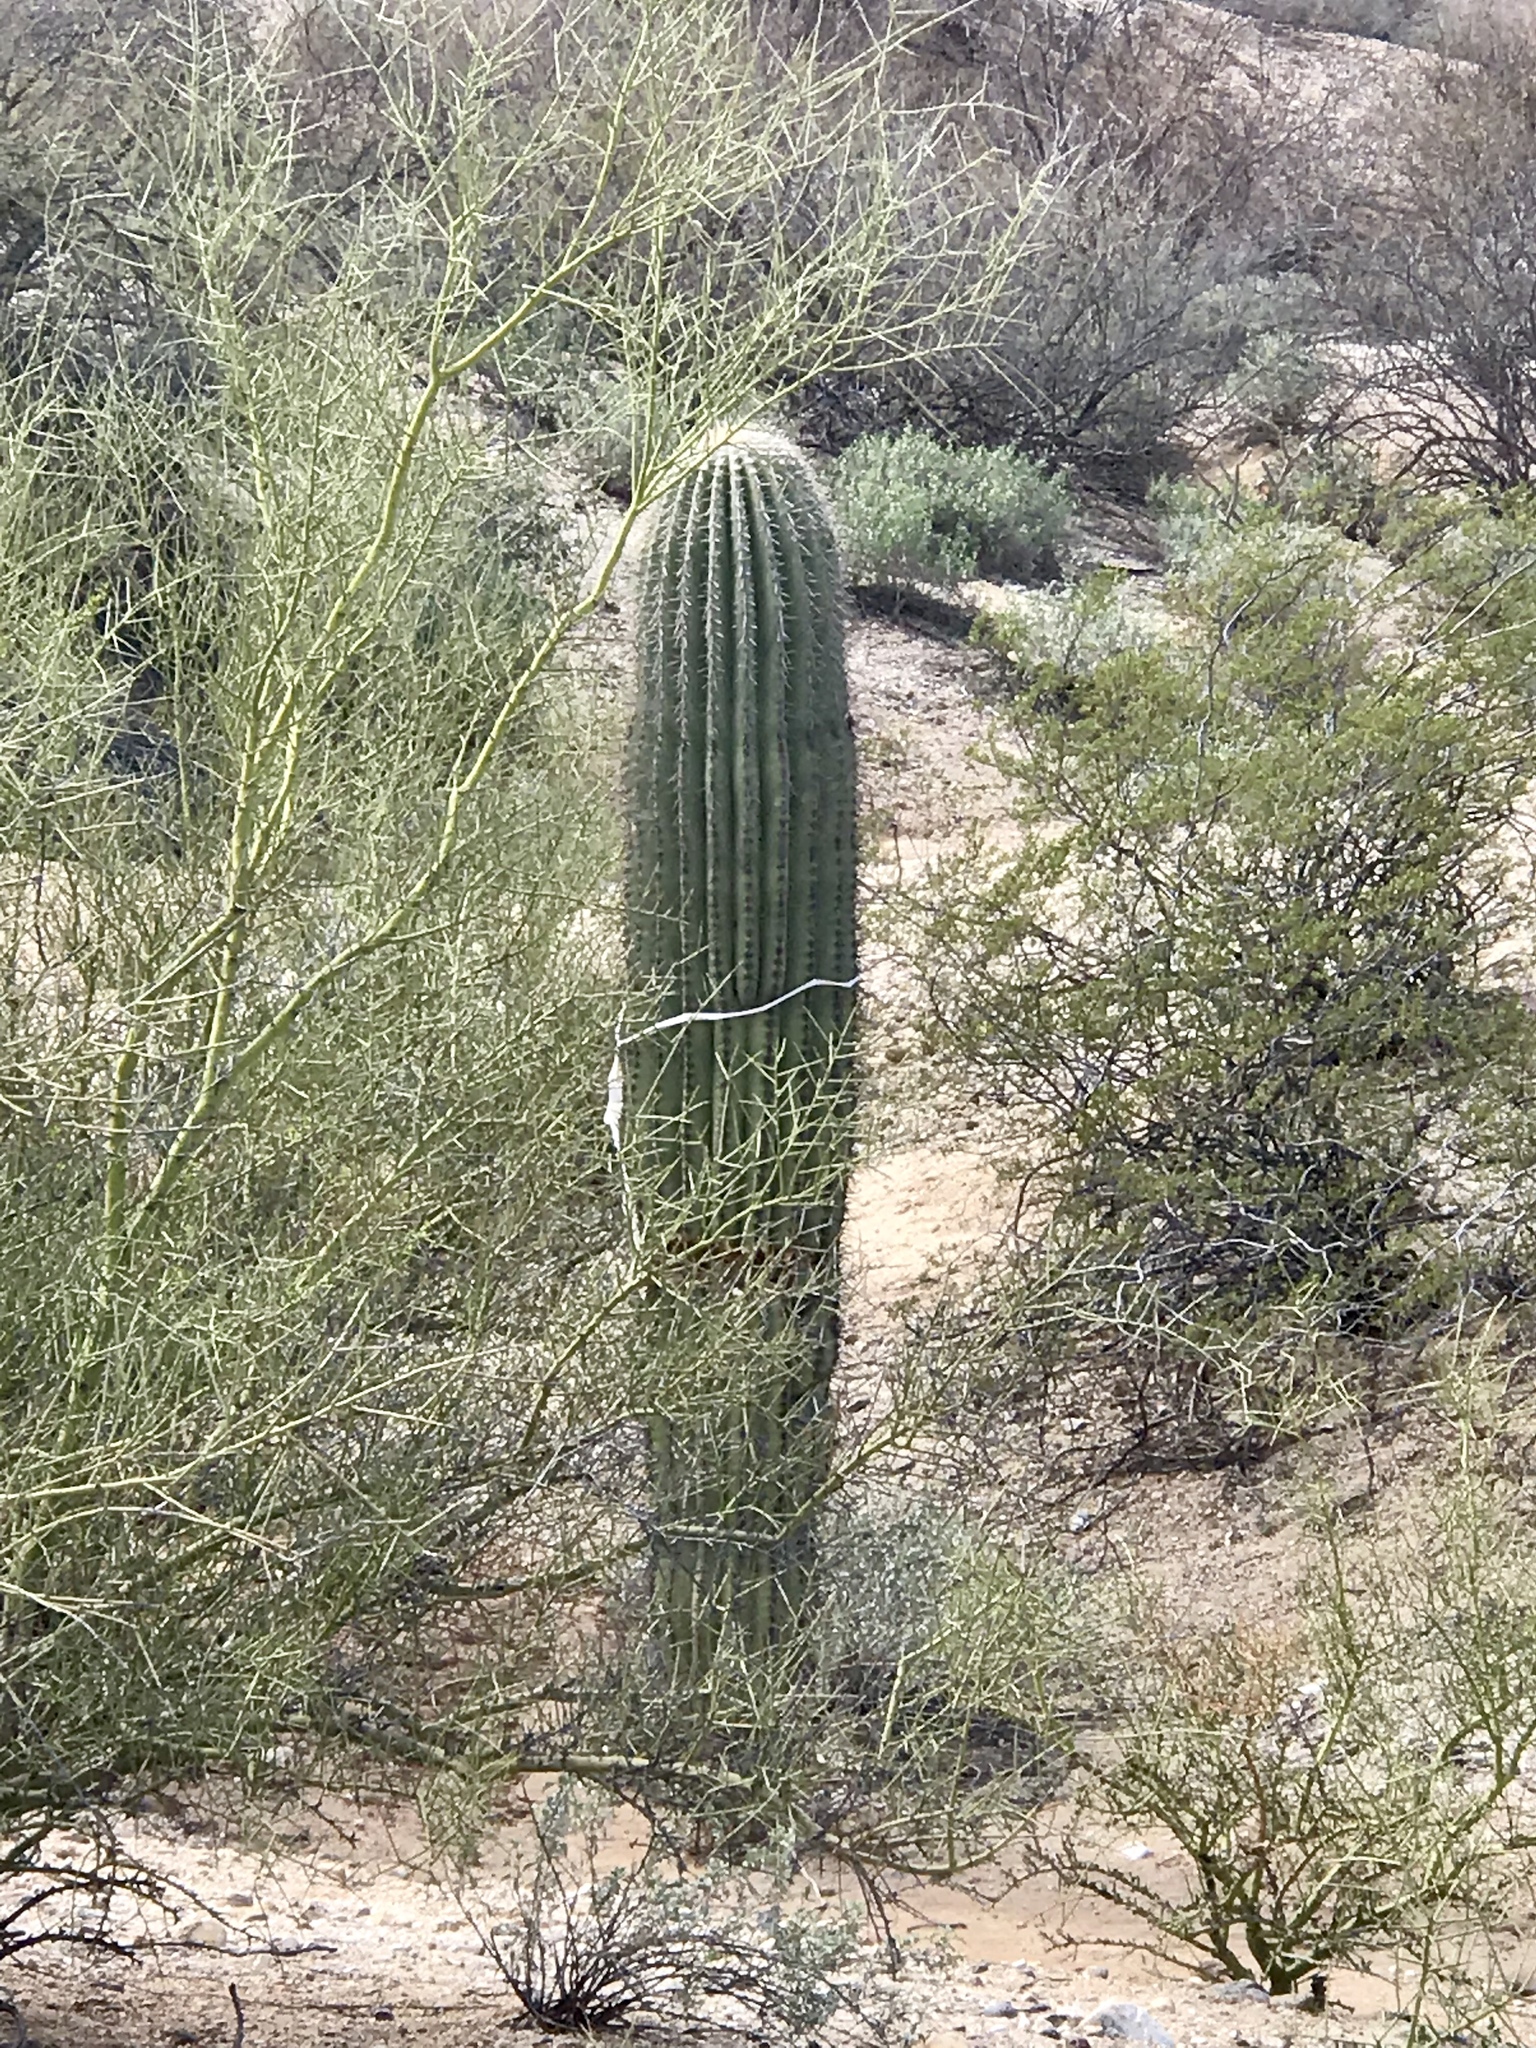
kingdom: Plantae
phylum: Tracheophyta
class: Magnoliopsida
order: Caryophyllales
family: Cactaceae
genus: Carnegiea
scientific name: Carnegiea gigantea
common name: Saguaro
